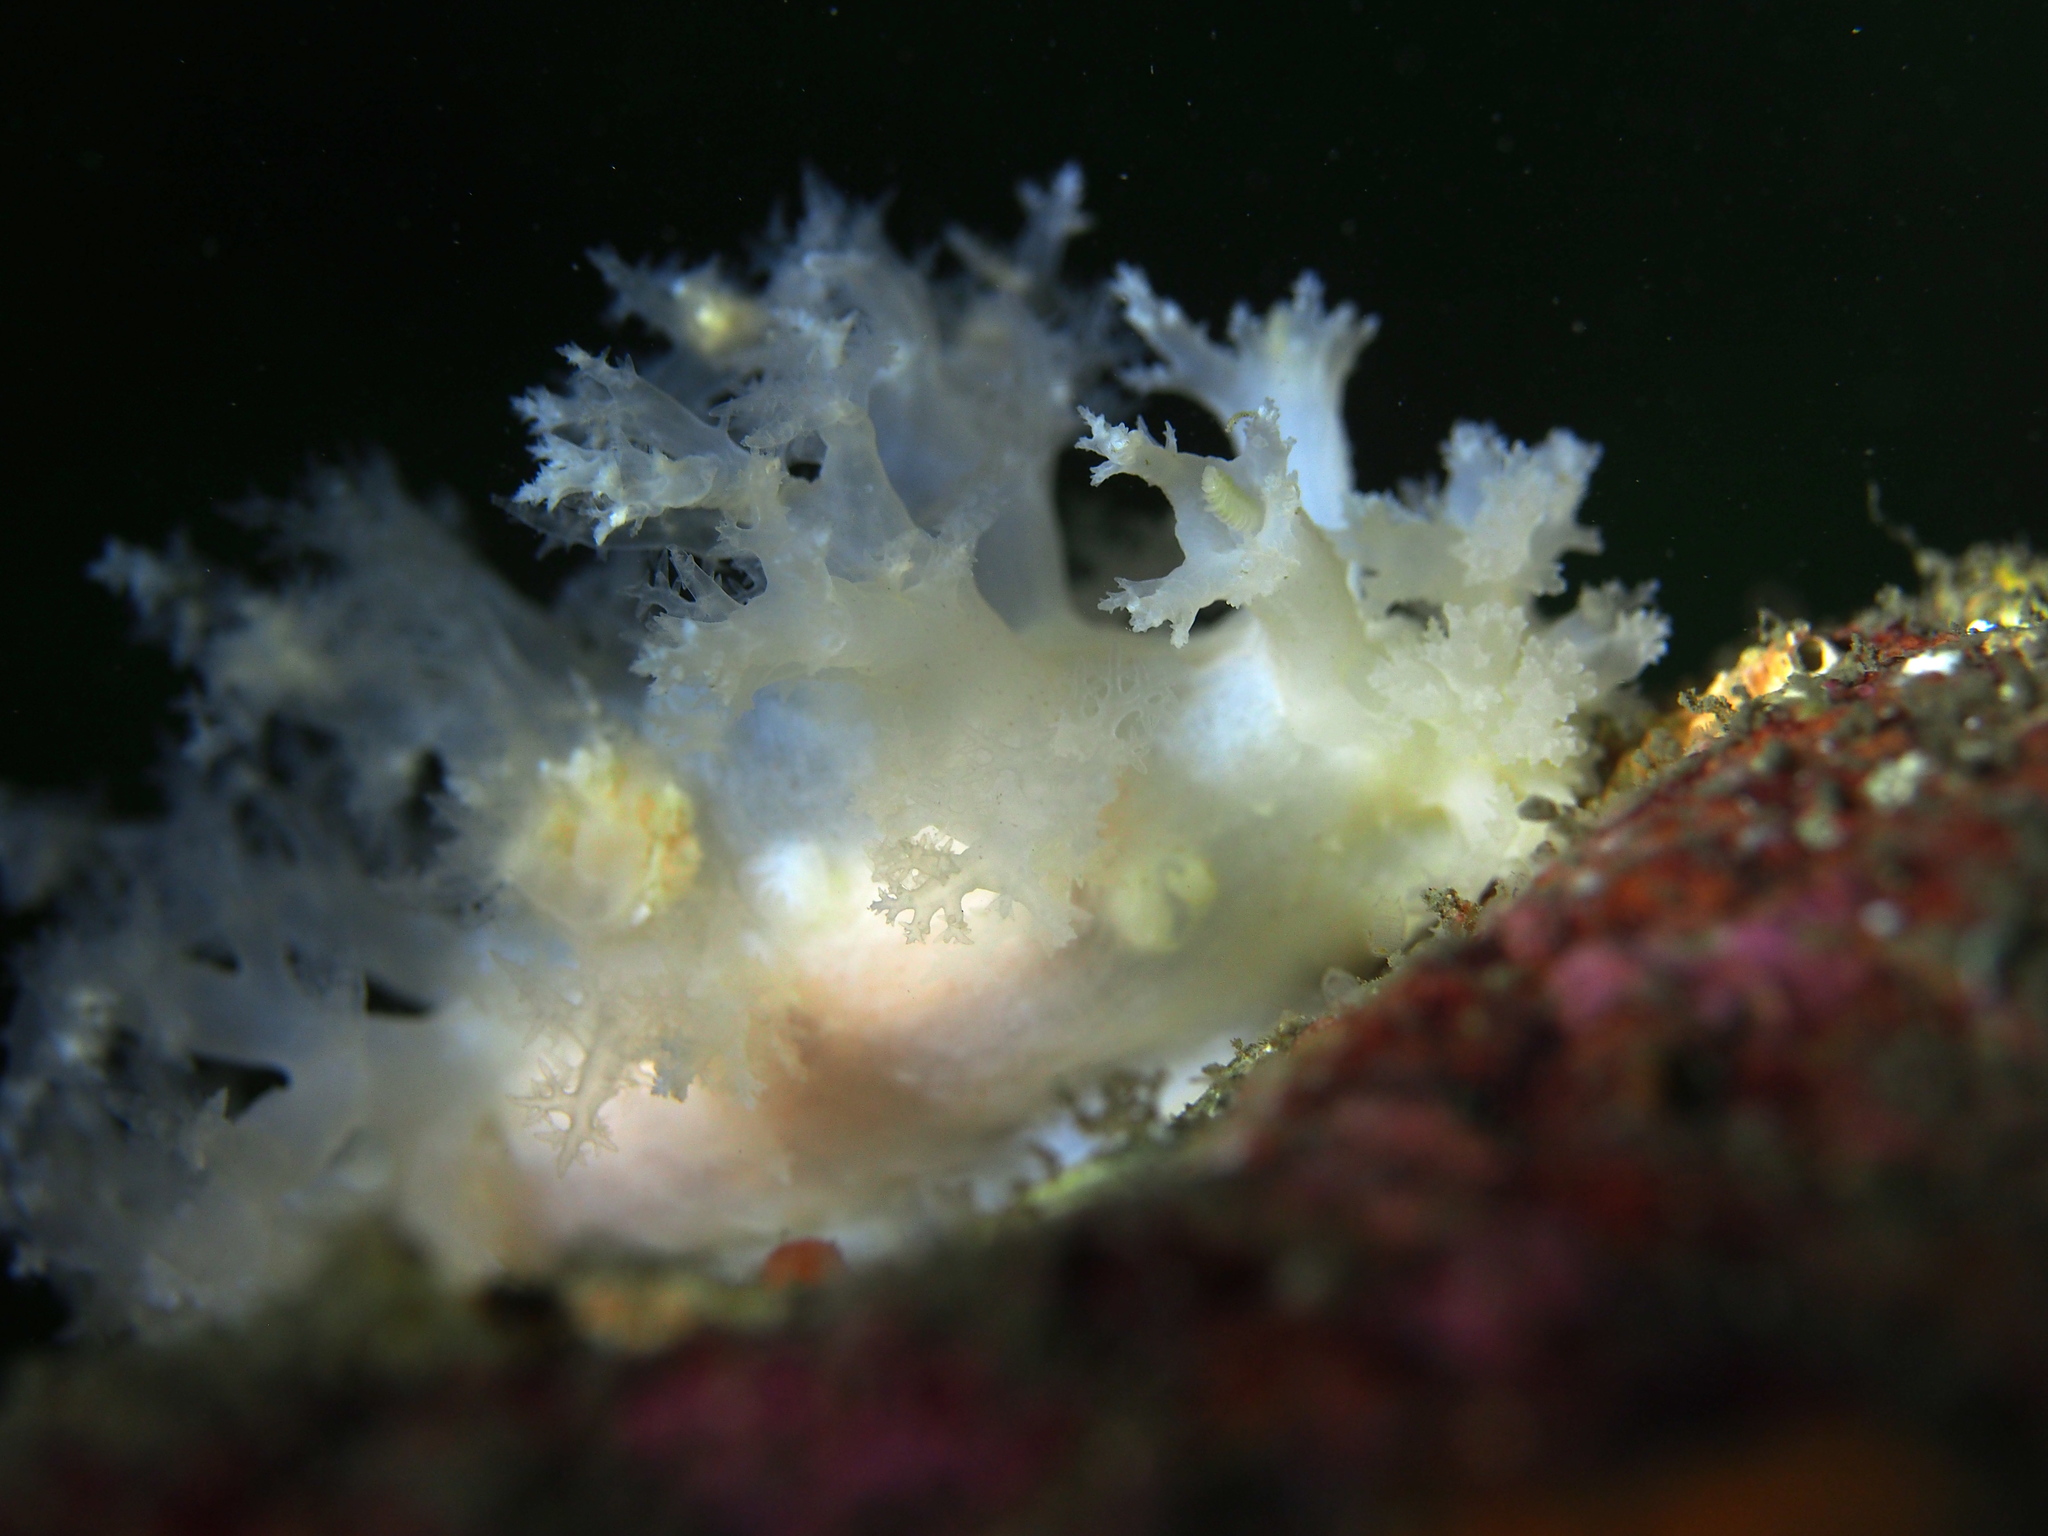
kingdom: Animalia
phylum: Mollusca
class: Gastropoda
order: Nudibranchia
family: Dendronotidae
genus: Dendronotus
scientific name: Dendronotus lacteus
